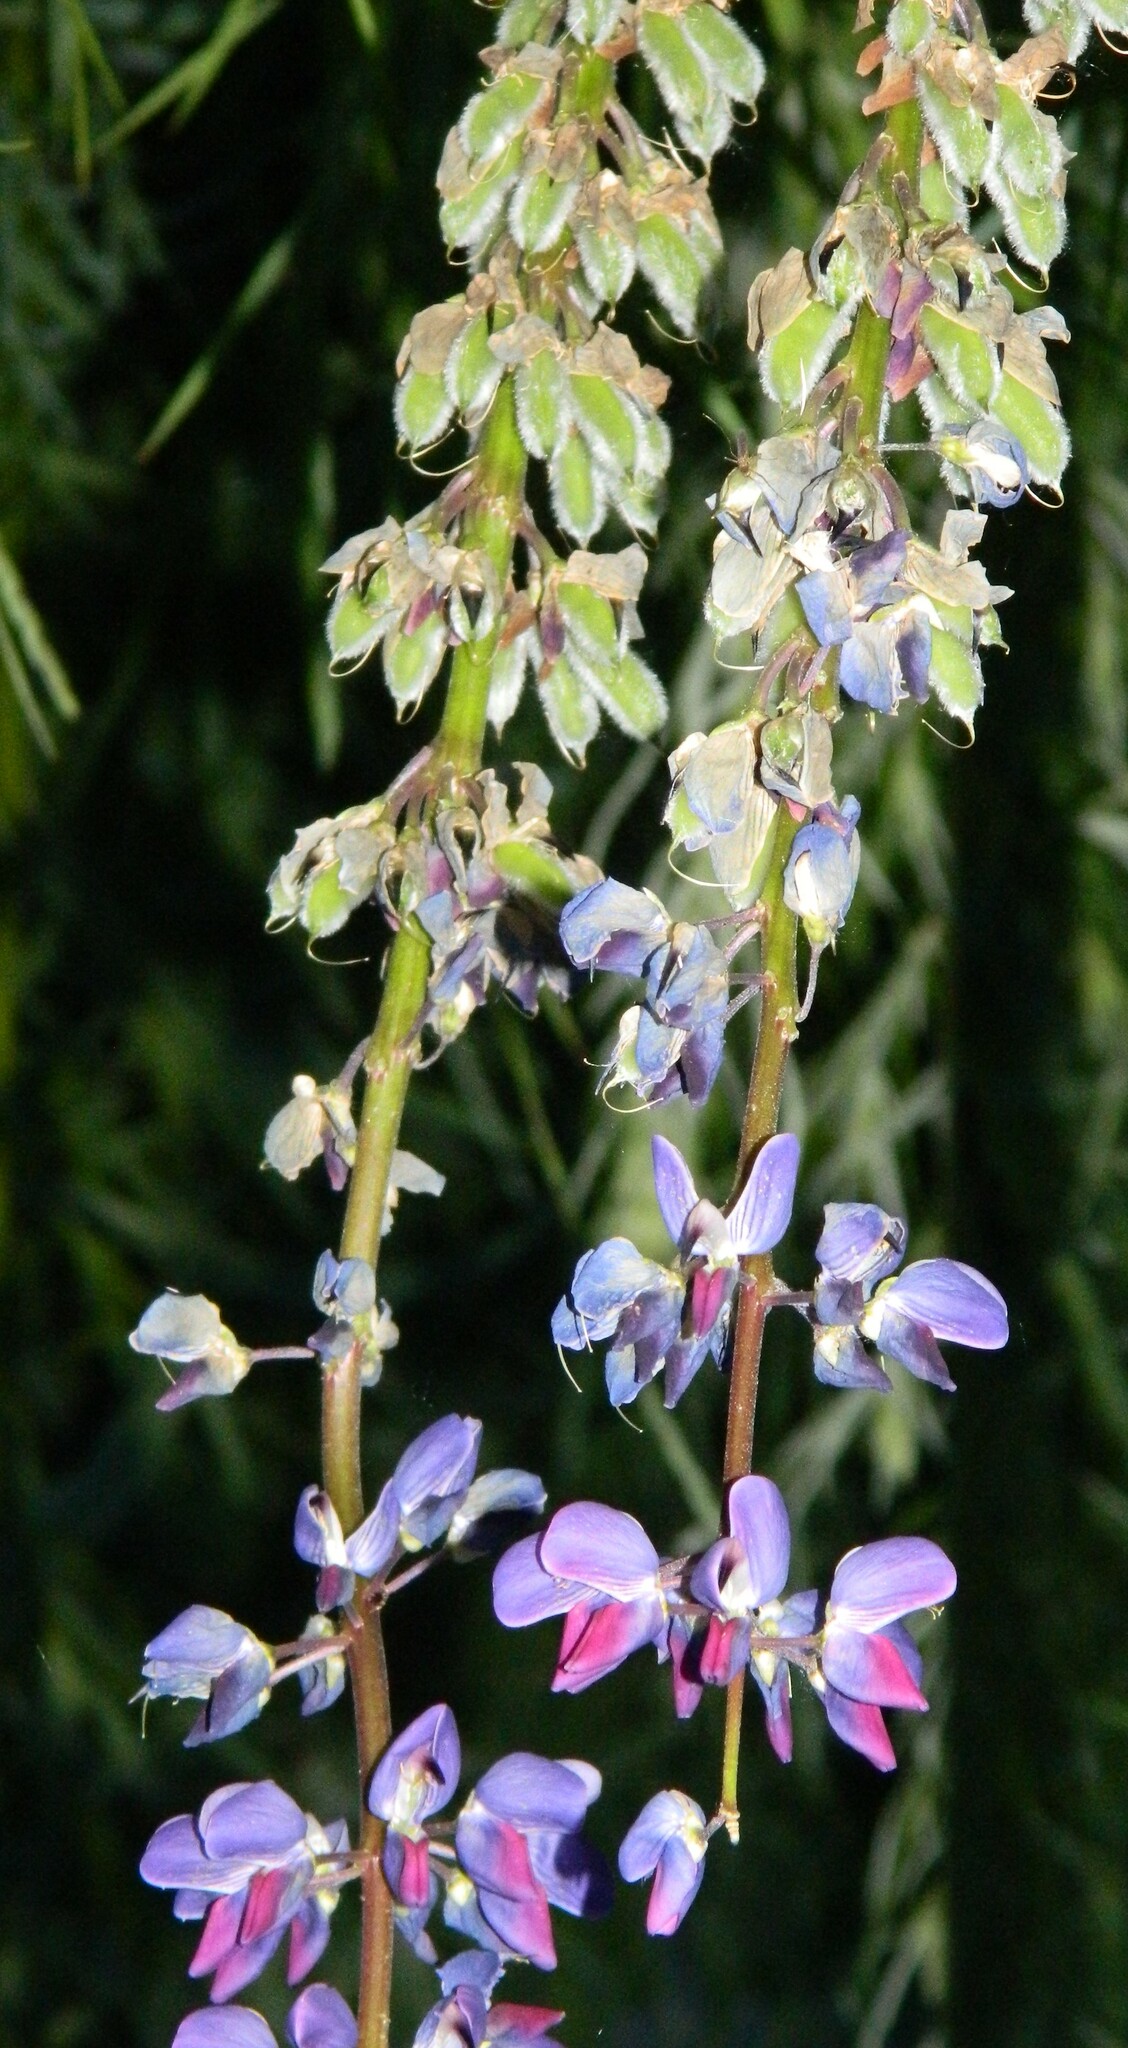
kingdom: Plantae
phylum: Tracheophyta
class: Magnoliopsida
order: Fabales
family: Fabaceae
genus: Lupinus
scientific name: Lupinus polyphyllus
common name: Garden lupin
